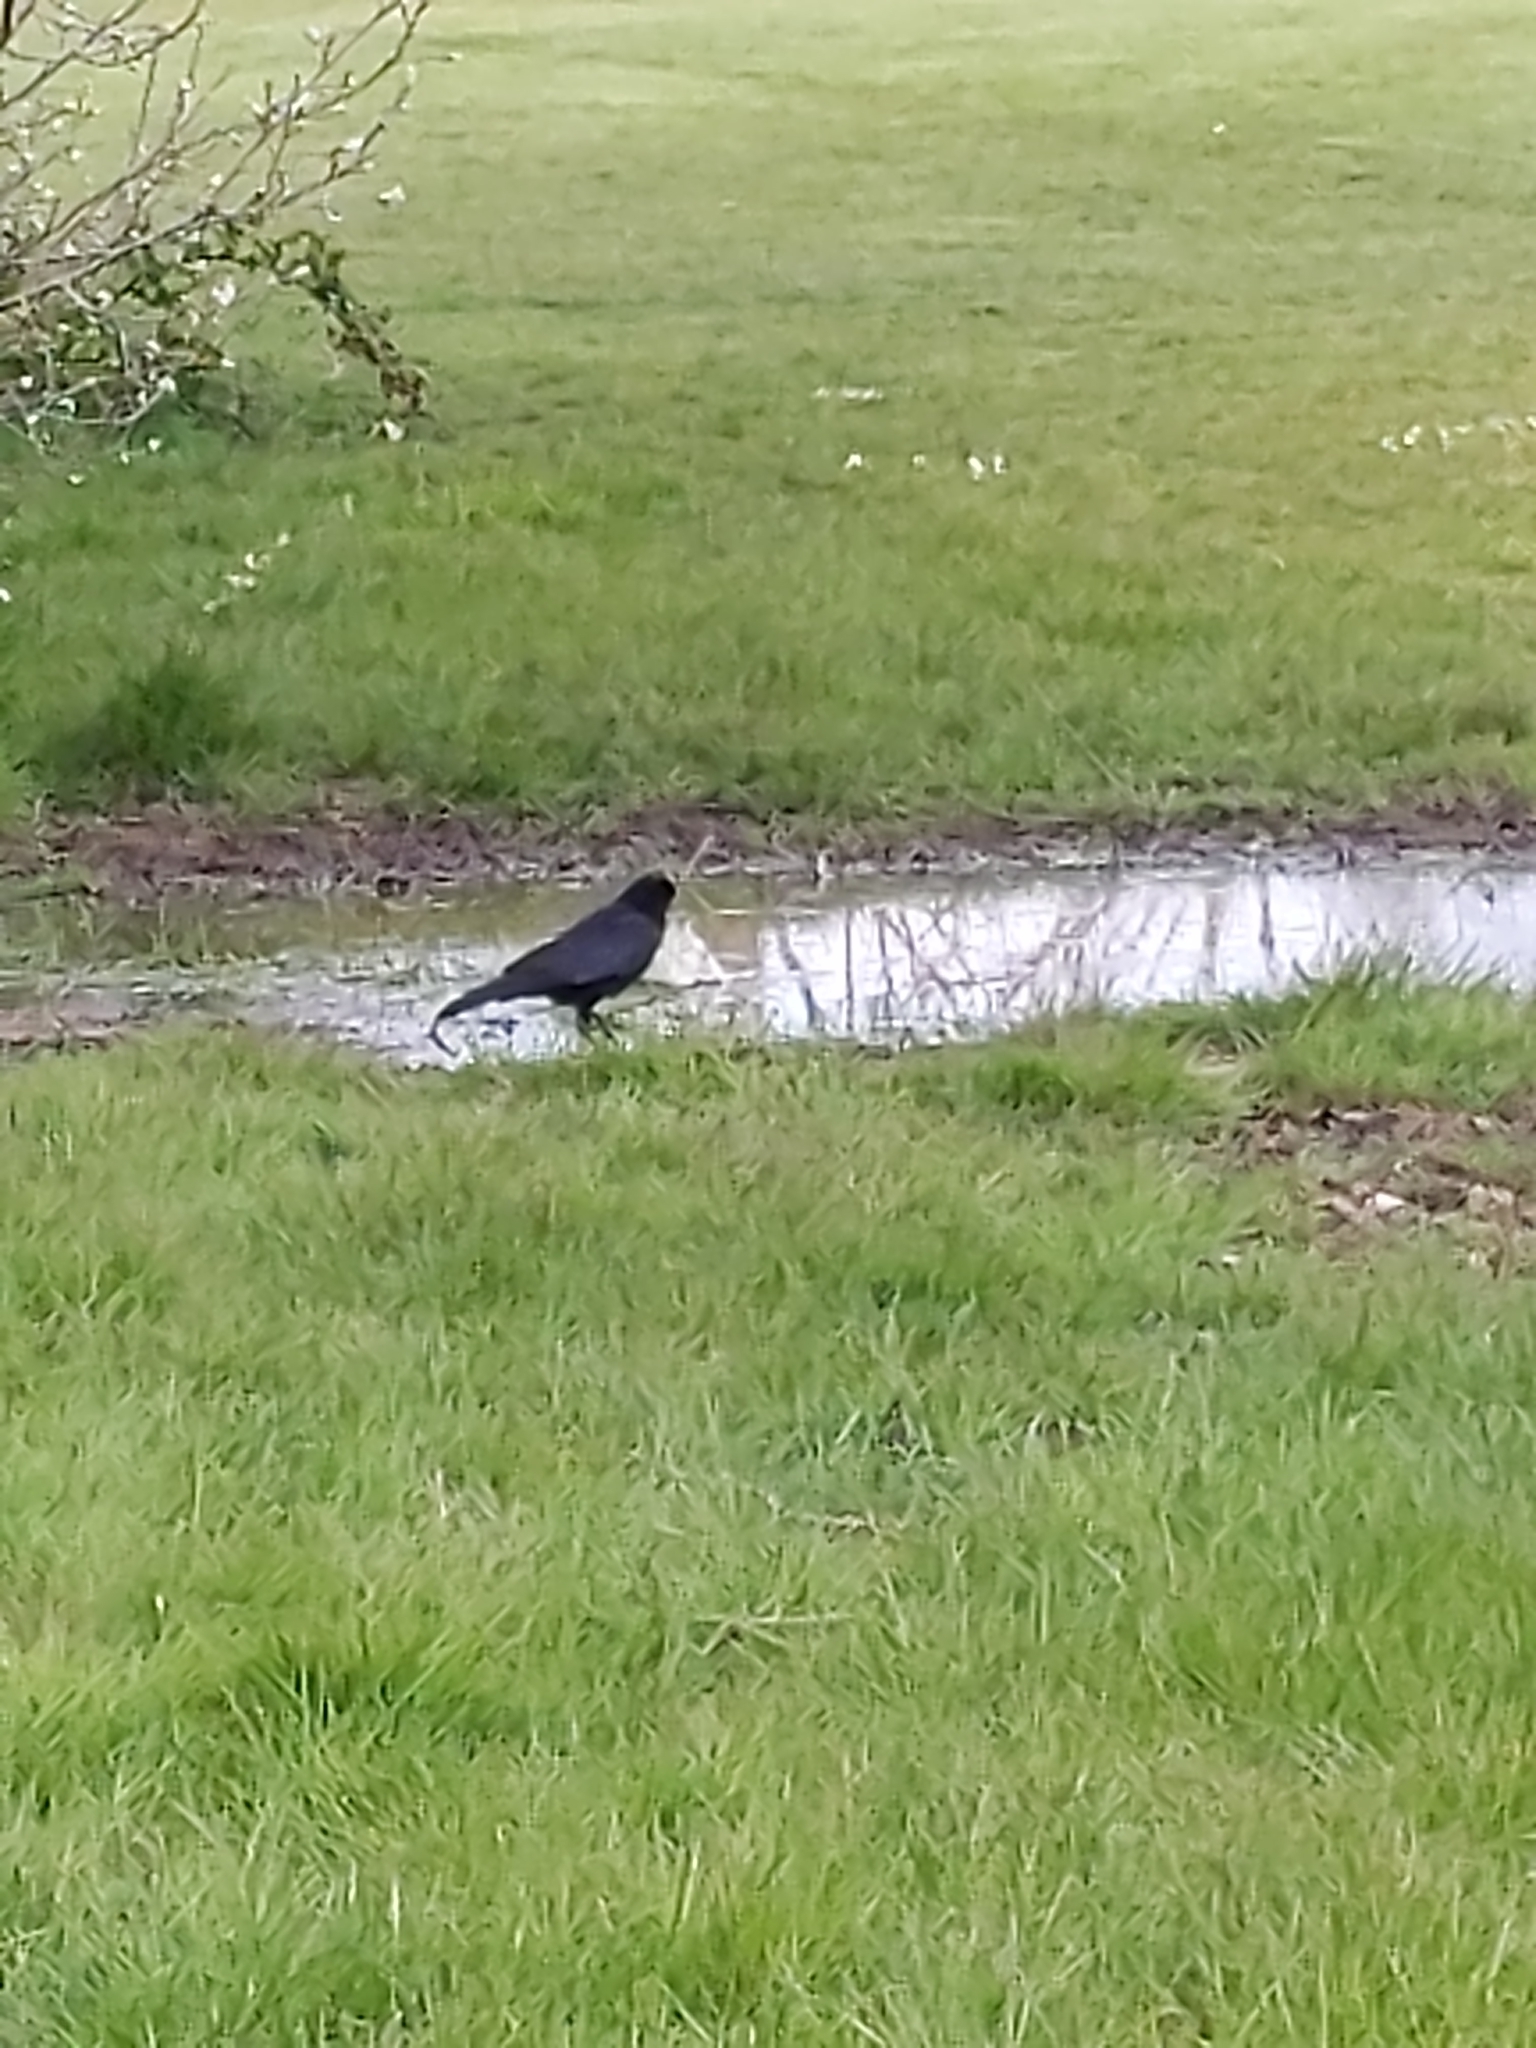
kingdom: Animalia
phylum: Chordata
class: Aves
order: Passeriformes
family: Corvidae
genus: Corvus
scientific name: Corvus corone
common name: Carrion crow
